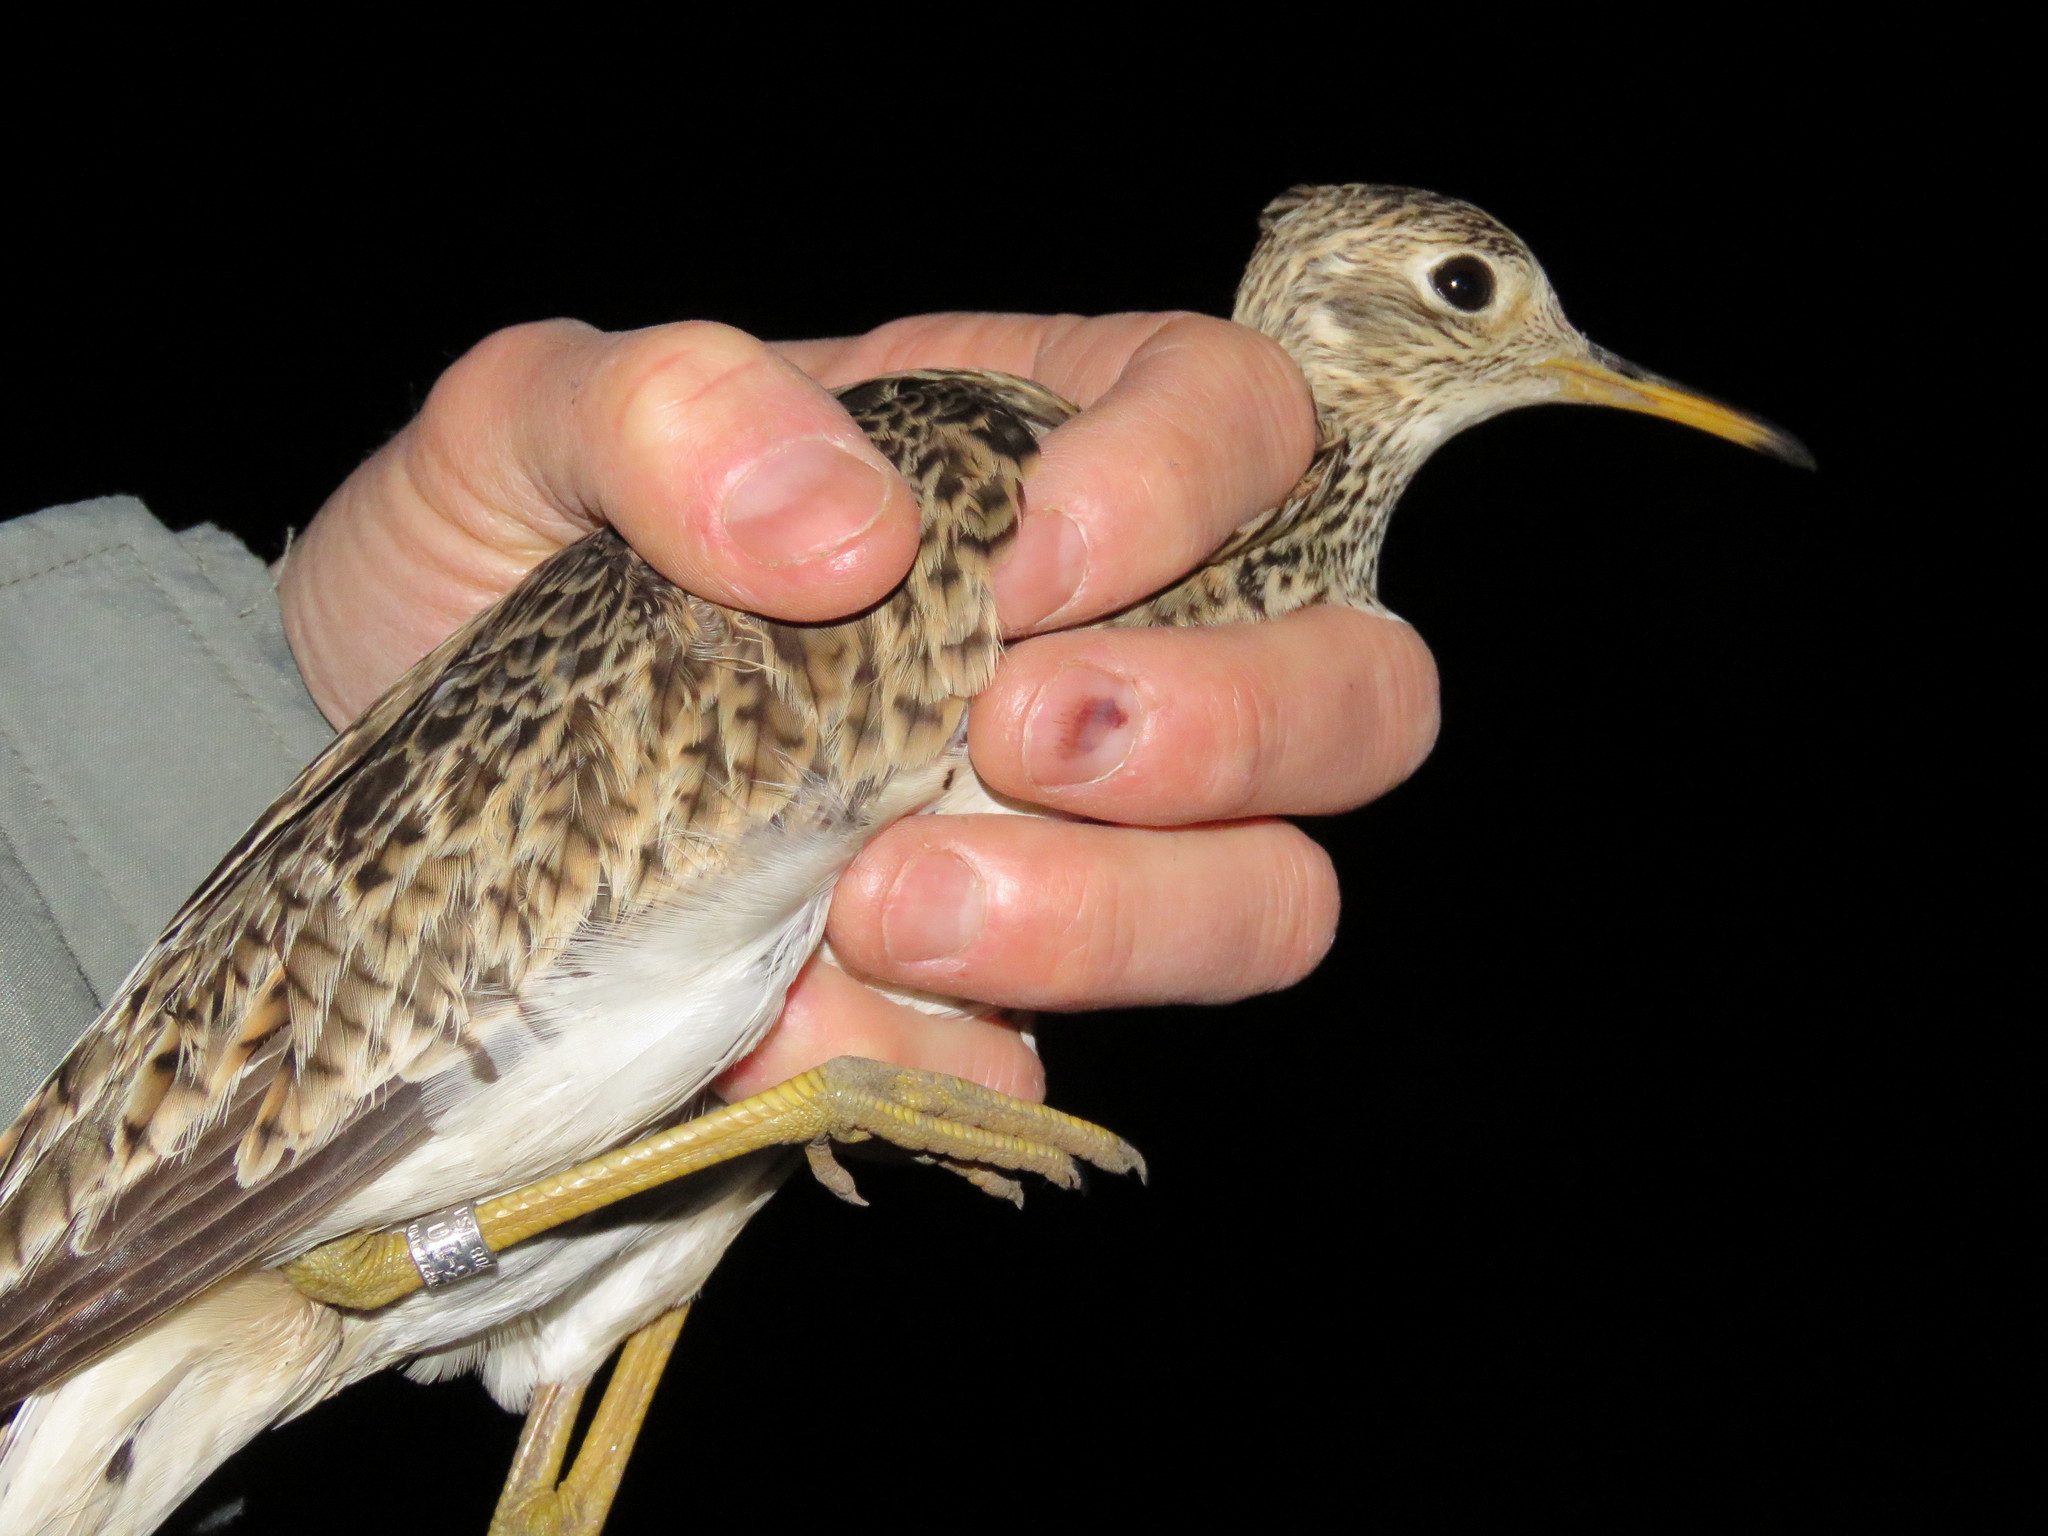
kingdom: Animalia
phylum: Chordata
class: Aves
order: Charadriiformes
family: Scolopacidae
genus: Bartramia
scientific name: Bartramia longicauda
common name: Upland sandpiper
